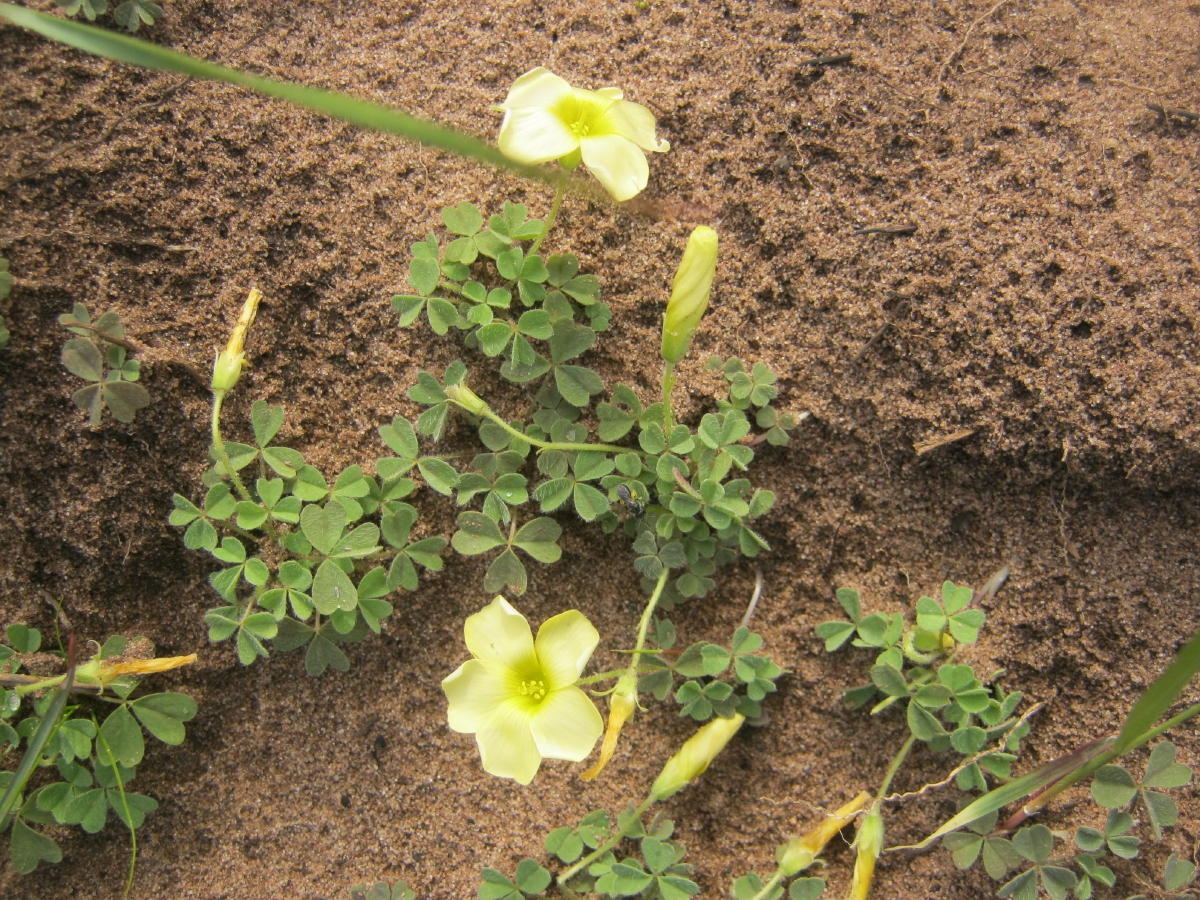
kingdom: Plantae
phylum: Tracheophyta
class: Magnoliopsida
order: Oxalidales
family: Oxalidaceae
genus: Oxalis
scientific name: Oxalis obtusa
